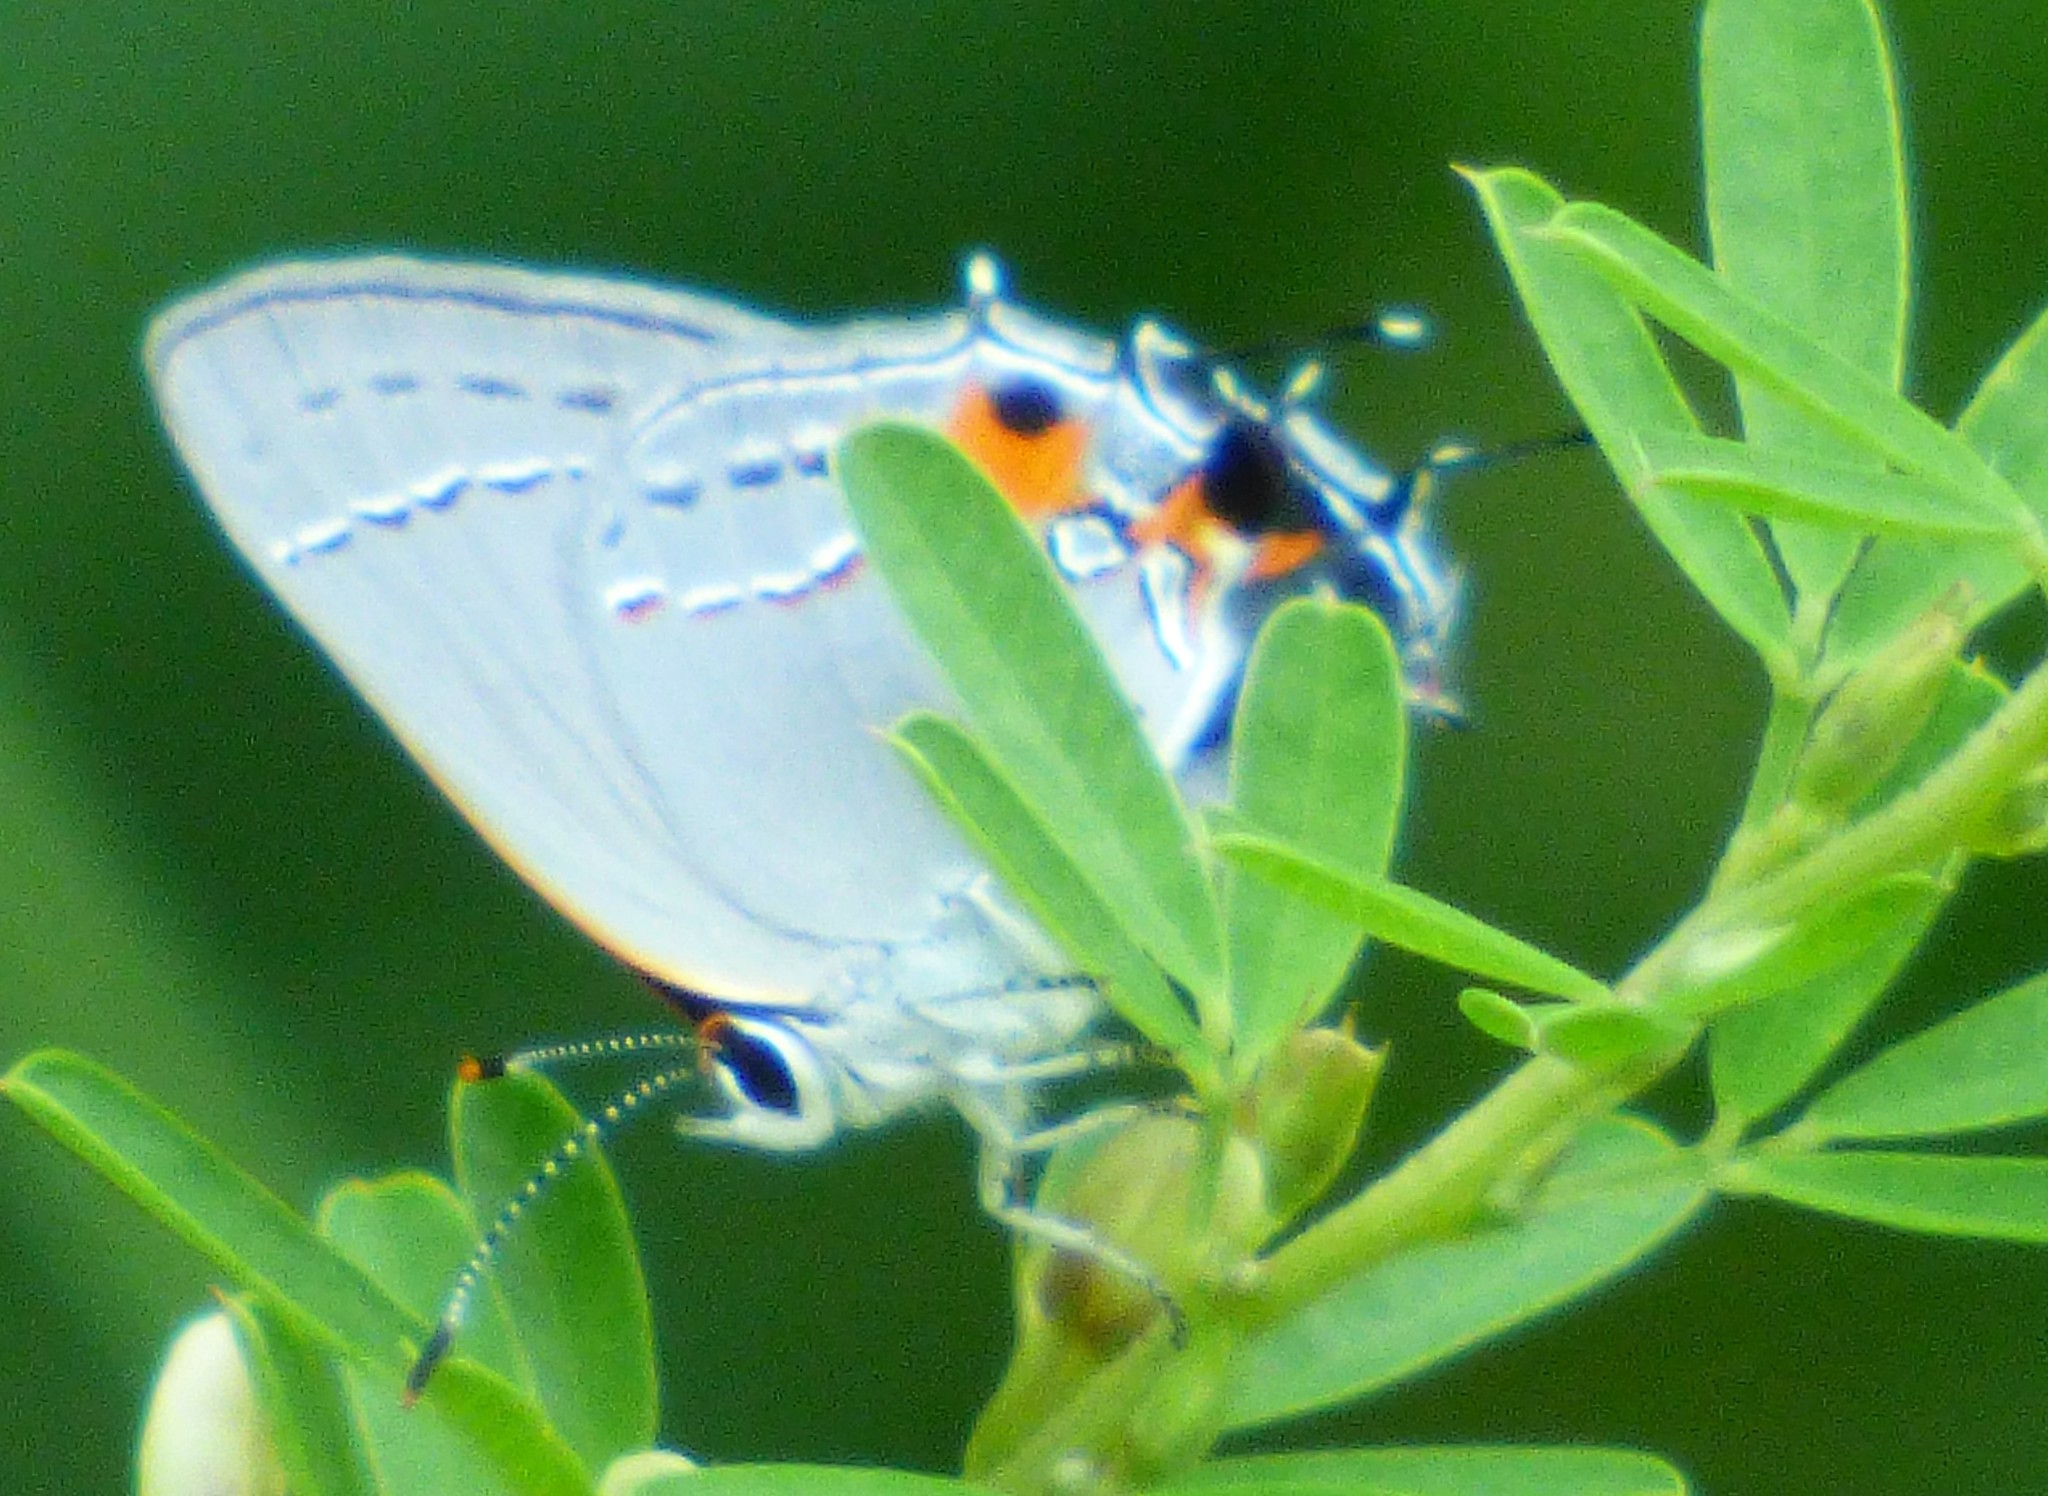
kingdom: Animalia
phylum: Arthropoda
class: Insecta
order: Lepidoptera
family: Lycaenidae
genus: Strymon
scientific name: Strymon melinus
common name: Gray hairstreak
